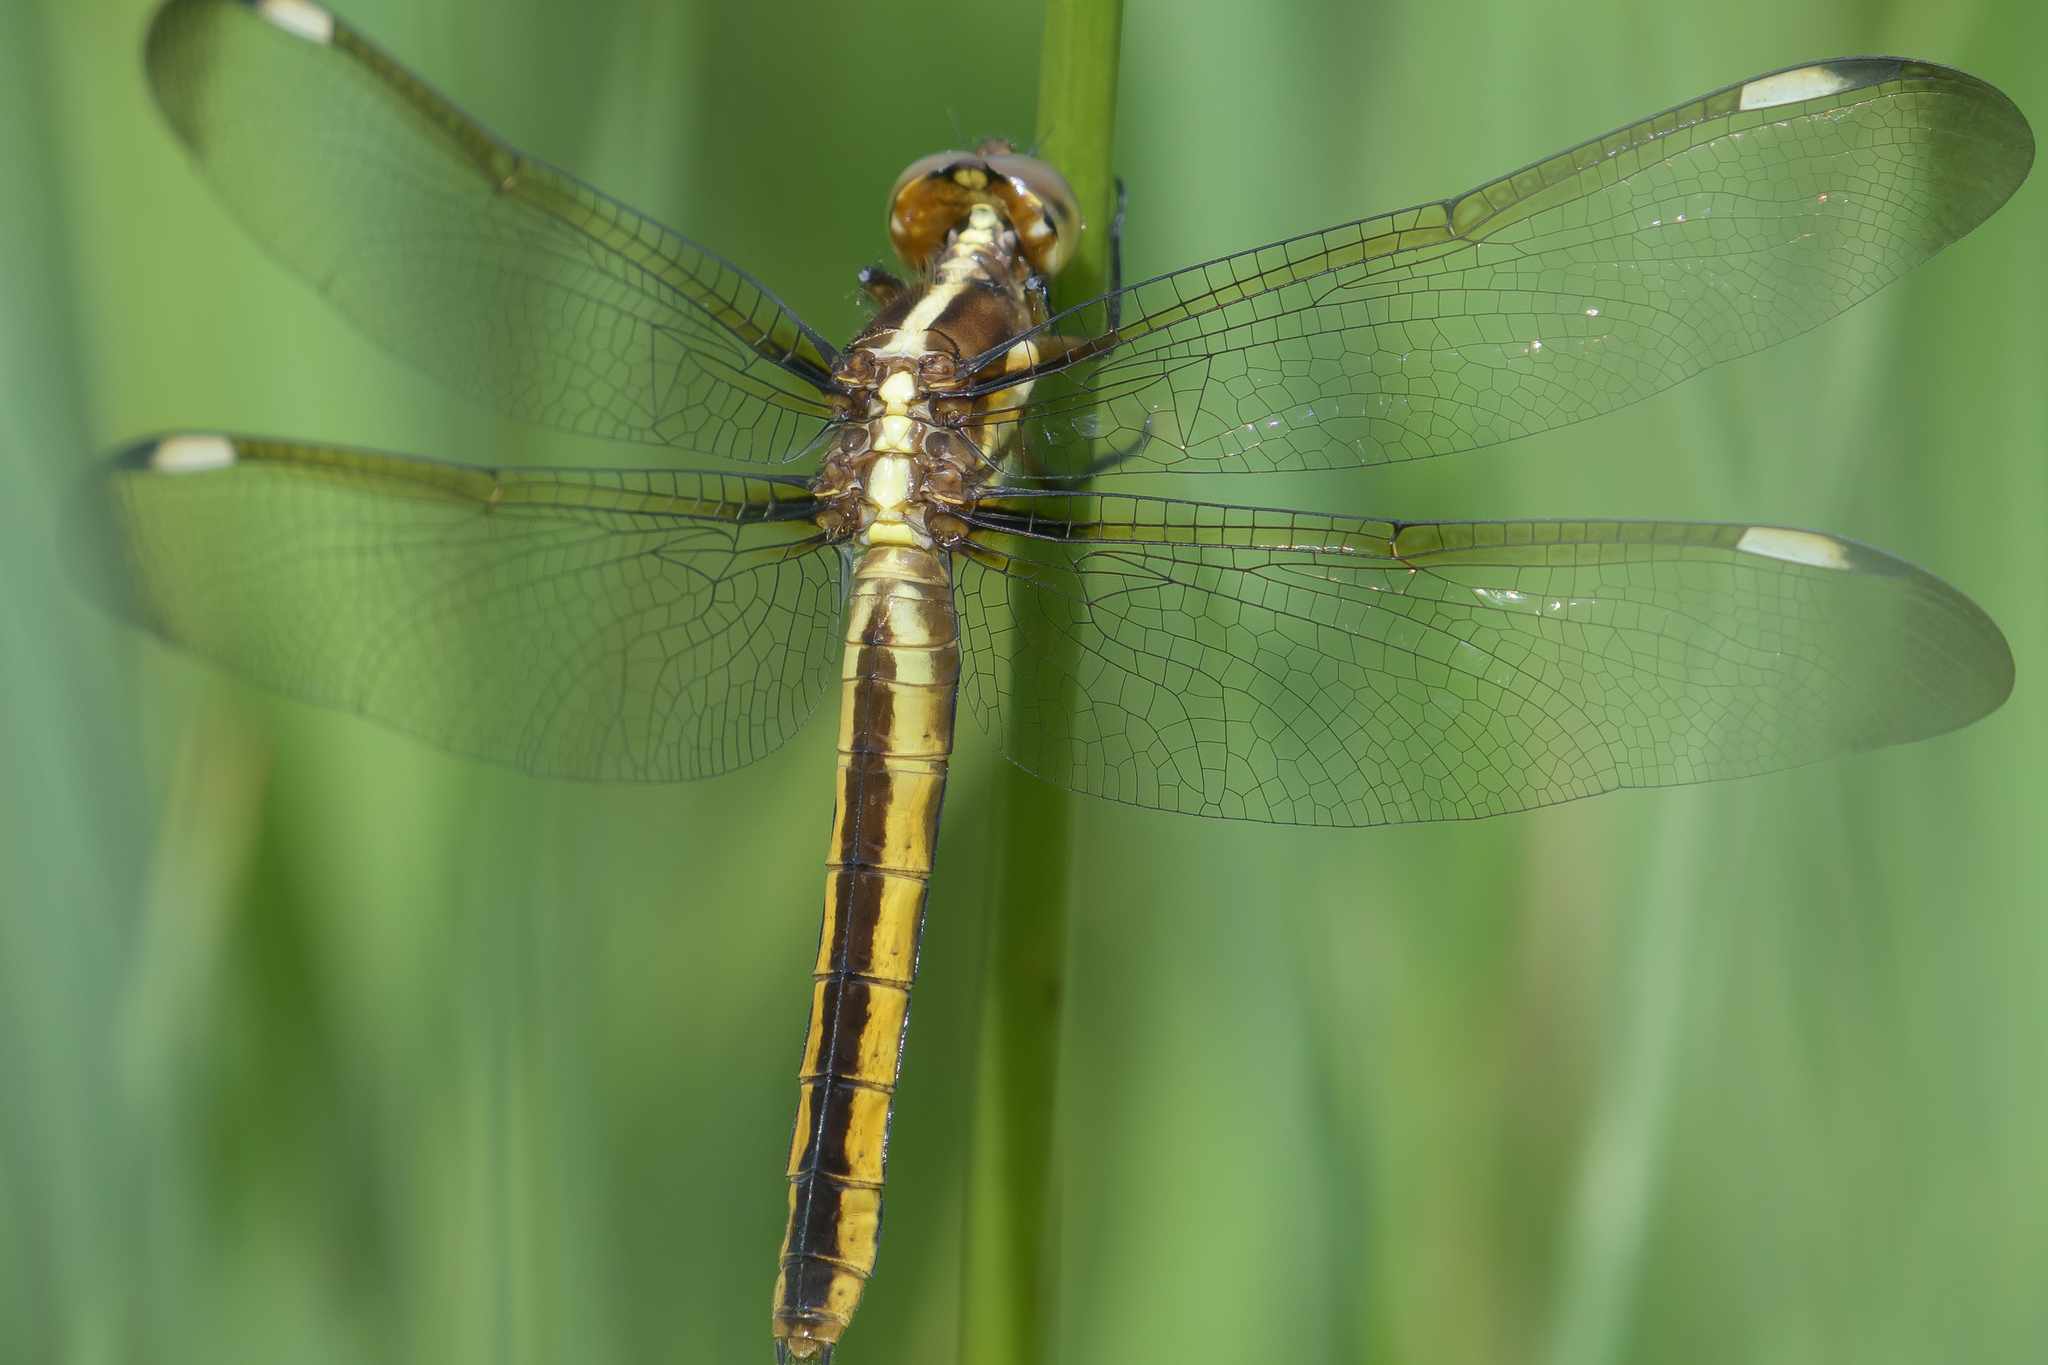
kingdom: Animalia
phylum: Arthropoda
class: Insecta
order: Odonata
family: Libellulidae
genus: Libellula
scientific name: Libellula cyanea
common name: Spangled skimmer
